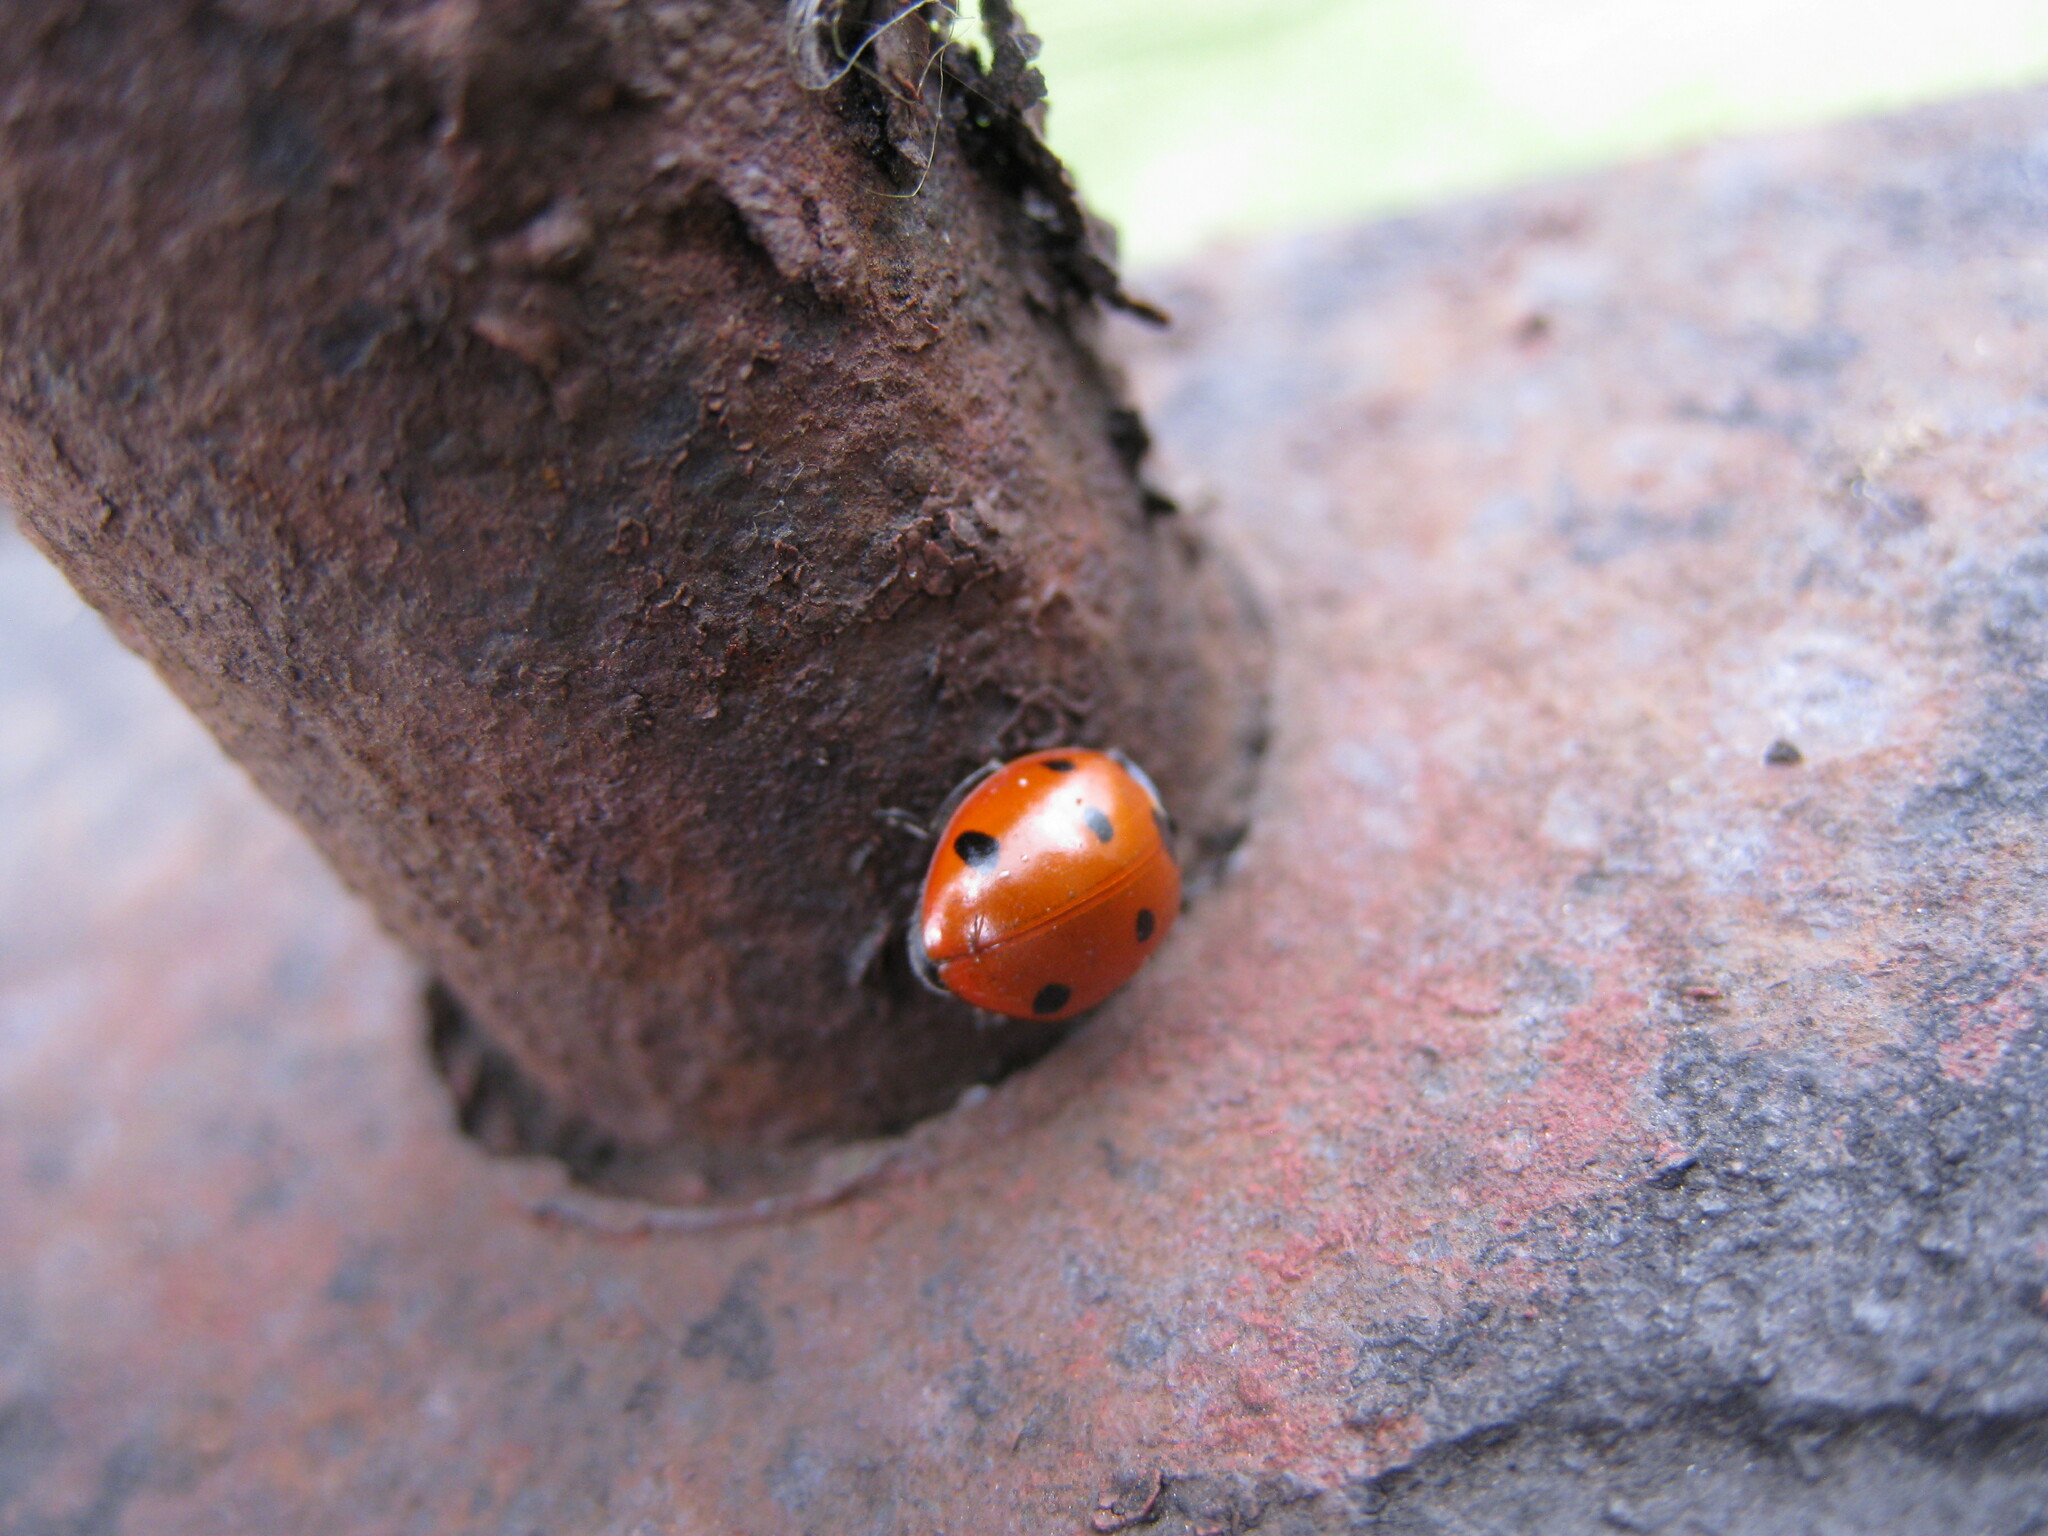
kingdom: Animalia
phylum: Arthropoda
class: Insecta
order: Coleoptera
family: Coccinellidae
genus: Coccinella
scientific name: Coccinella septempunctata
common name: Sevenspotted lady beetle
